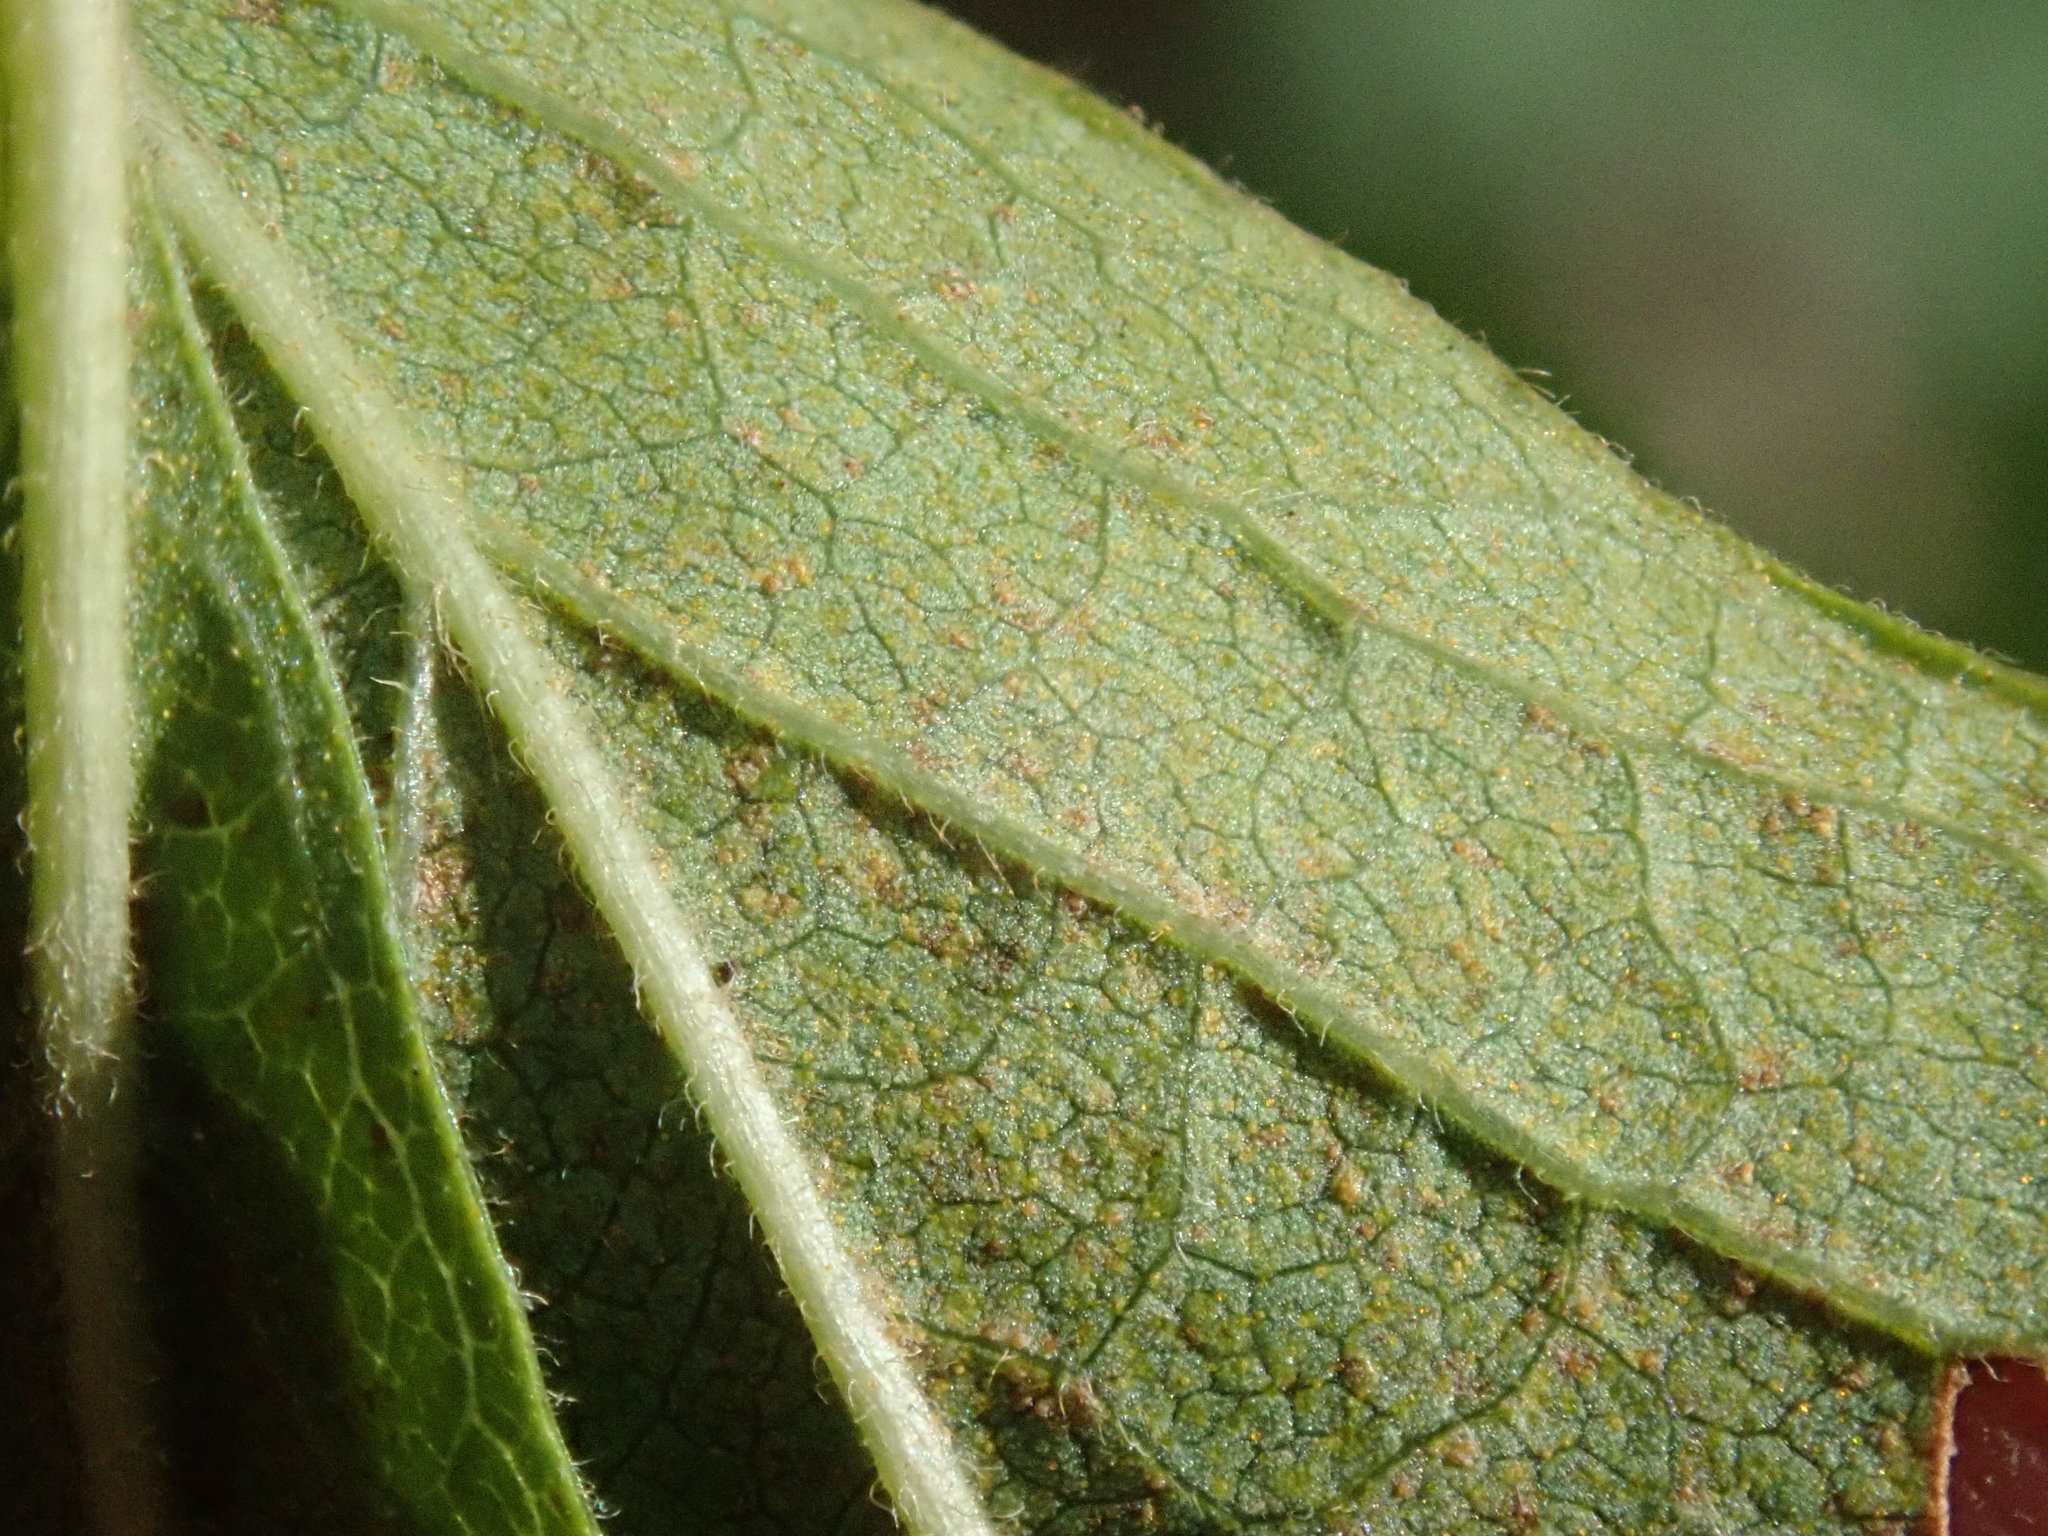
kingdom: Plantae
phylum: Tracheophyta
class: Magnoliopsida
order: Ericales
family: Ericaceae
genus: Gaylussacia
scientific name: Gaylussacia baccata
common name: Black huckleberry
